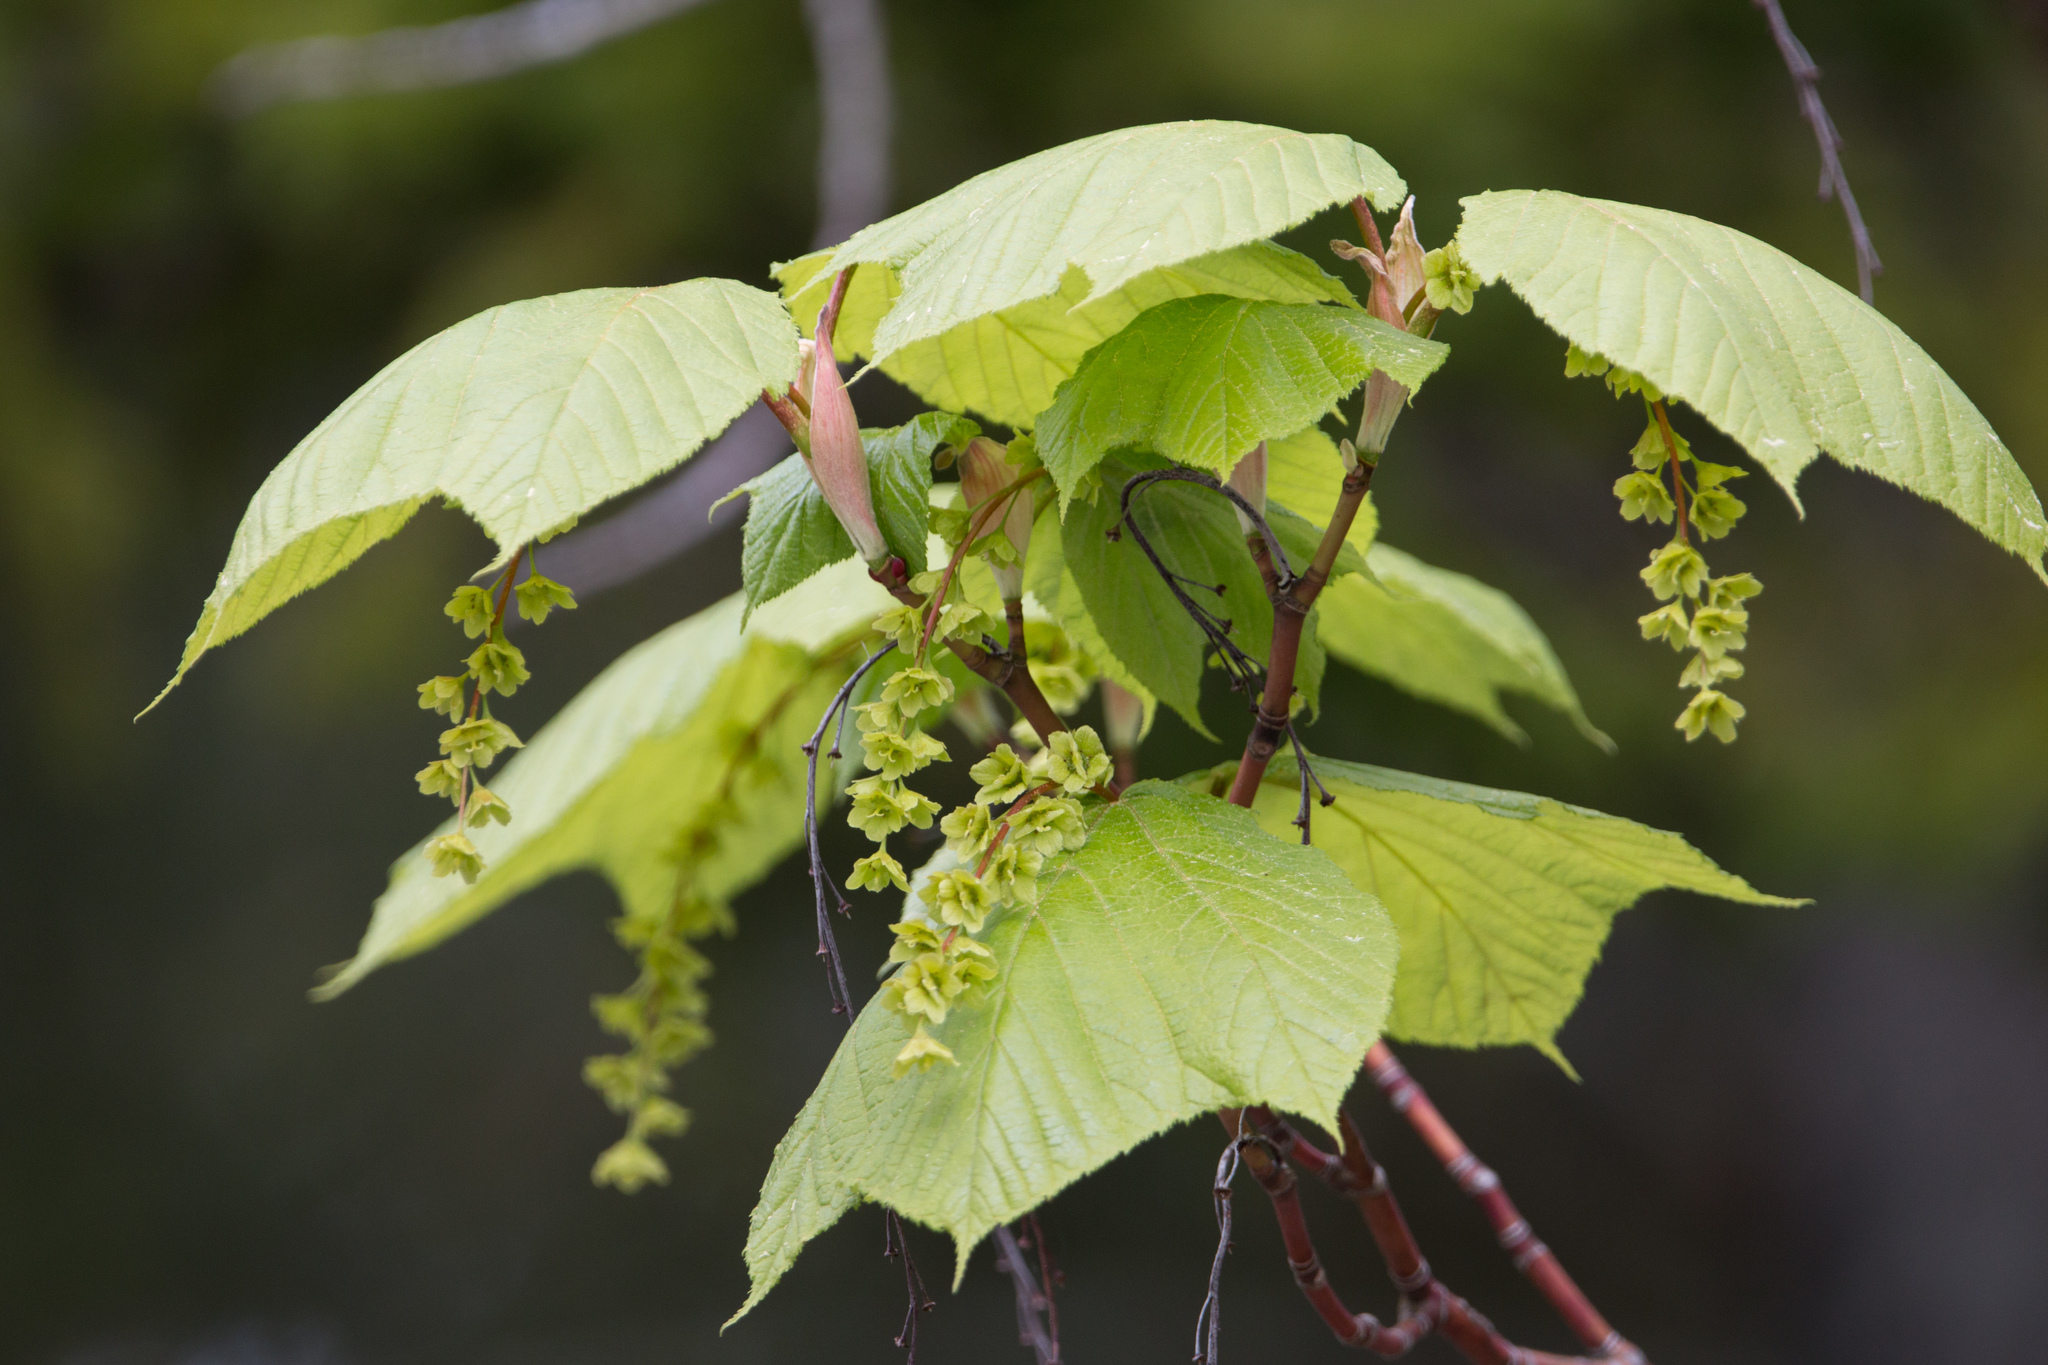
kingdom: Plantae
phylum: Tracheophyta
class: Magnoliopsida
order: Sapindales
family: Sapindaceae
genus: Acer
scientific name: Acer pensylvanicum
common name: Moosewood
